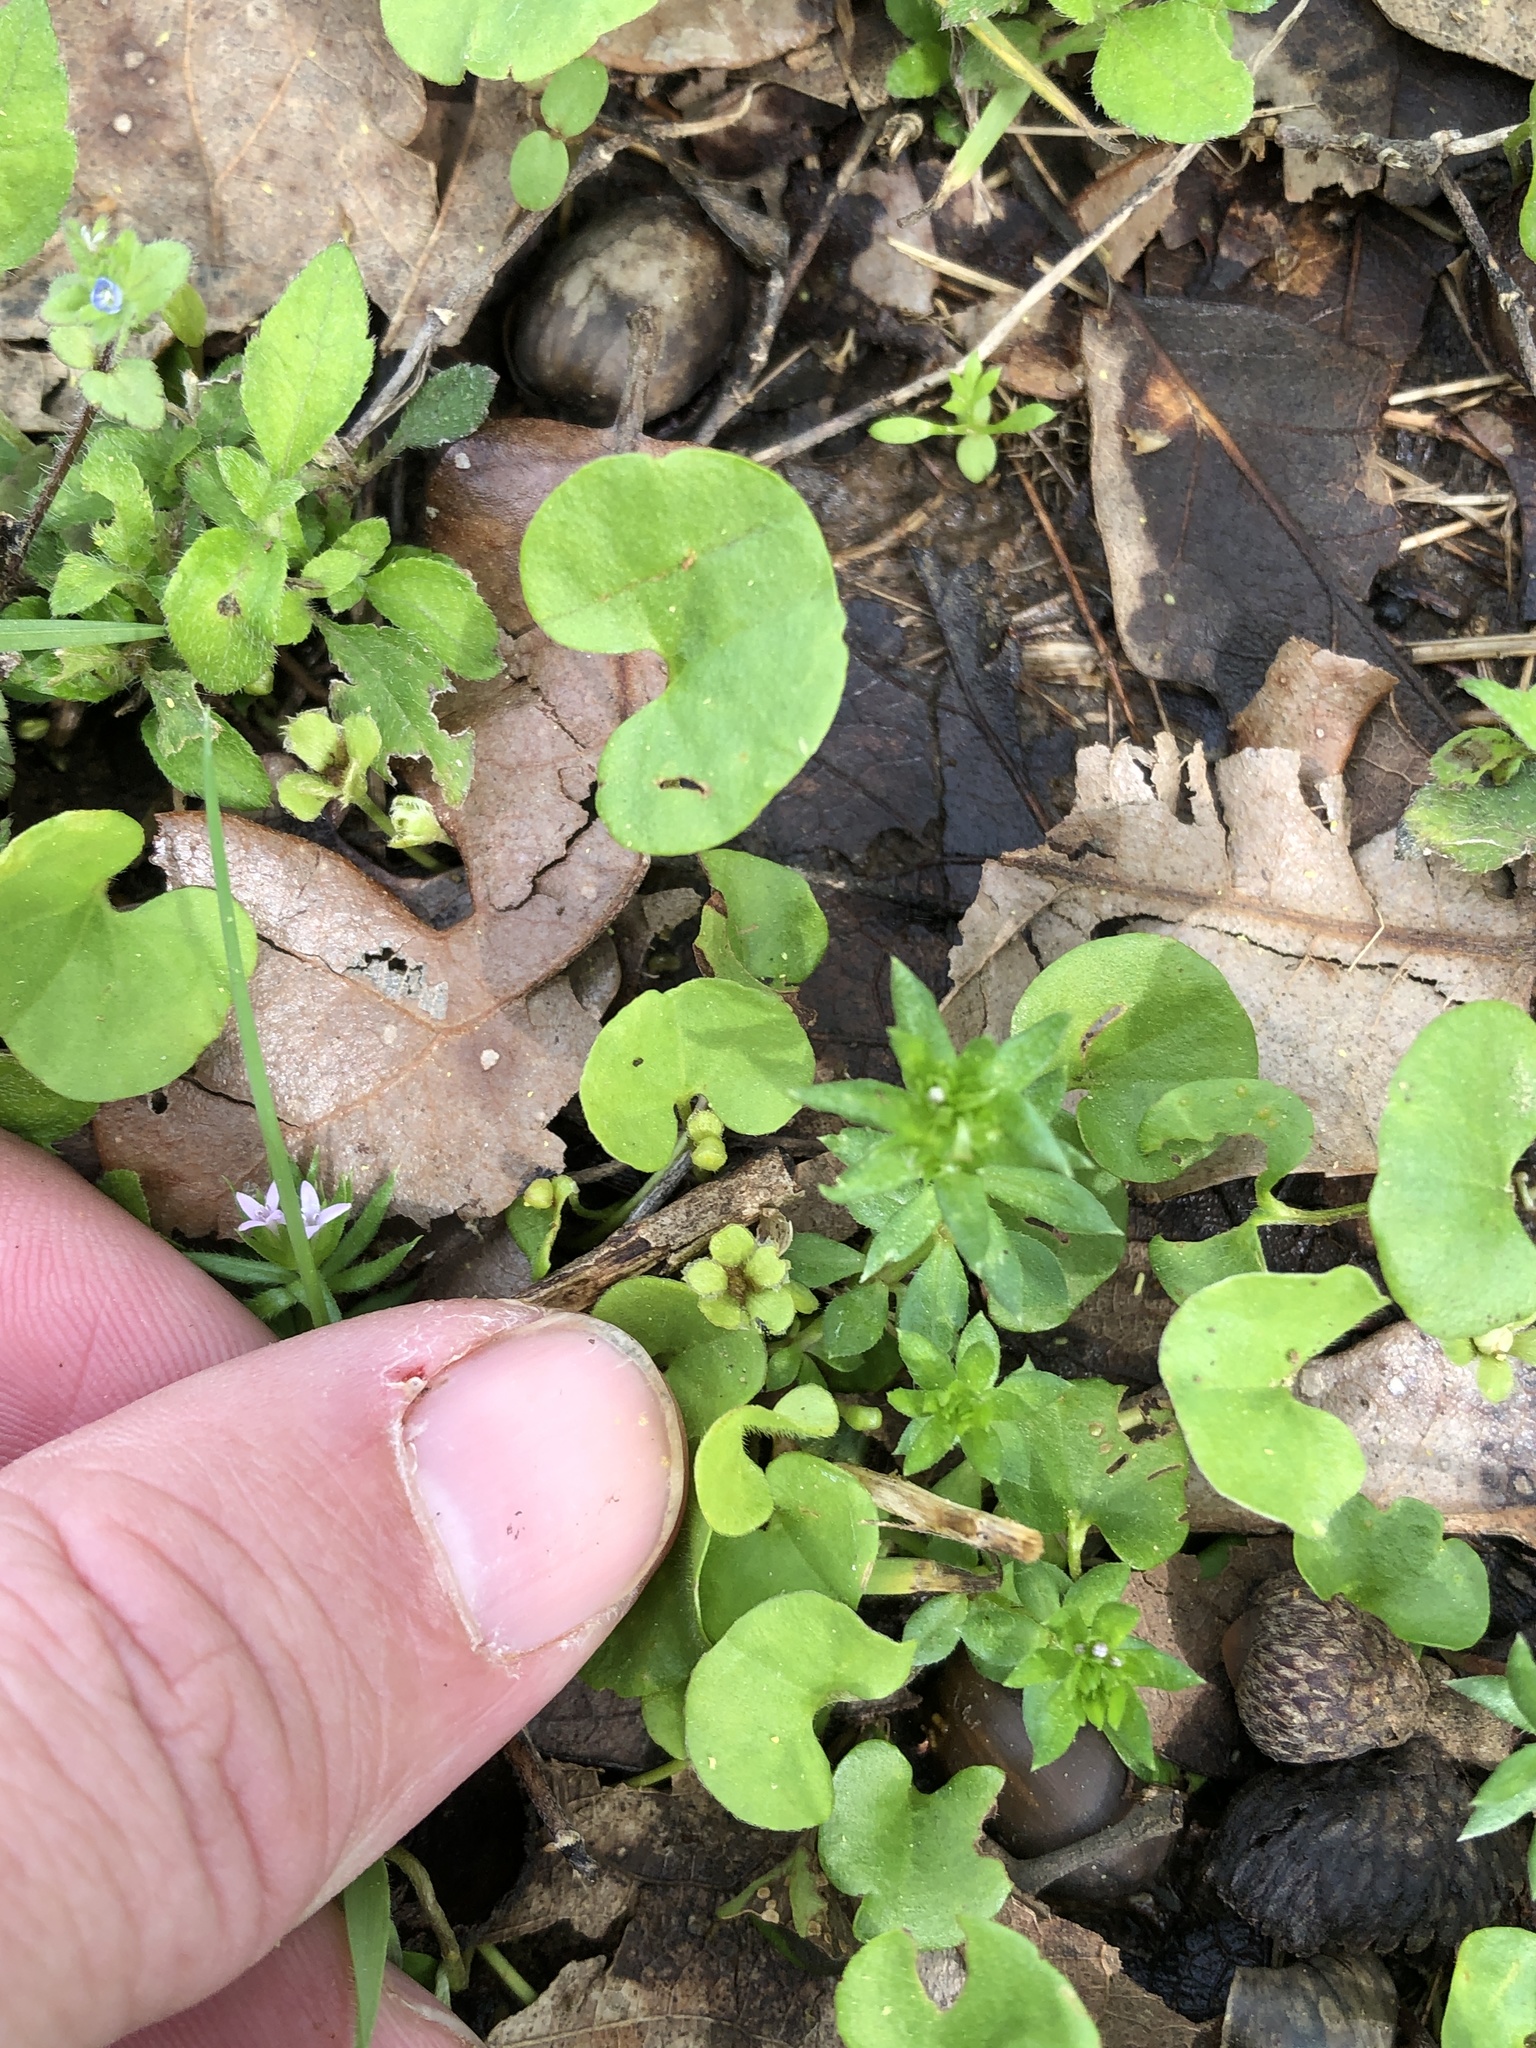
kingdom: Plantae
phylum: Tracheophyta
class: Magnoliopsida
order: Solanales
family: Convolvulaceae
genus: Dichondra
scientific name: Dichondra carolinensis
